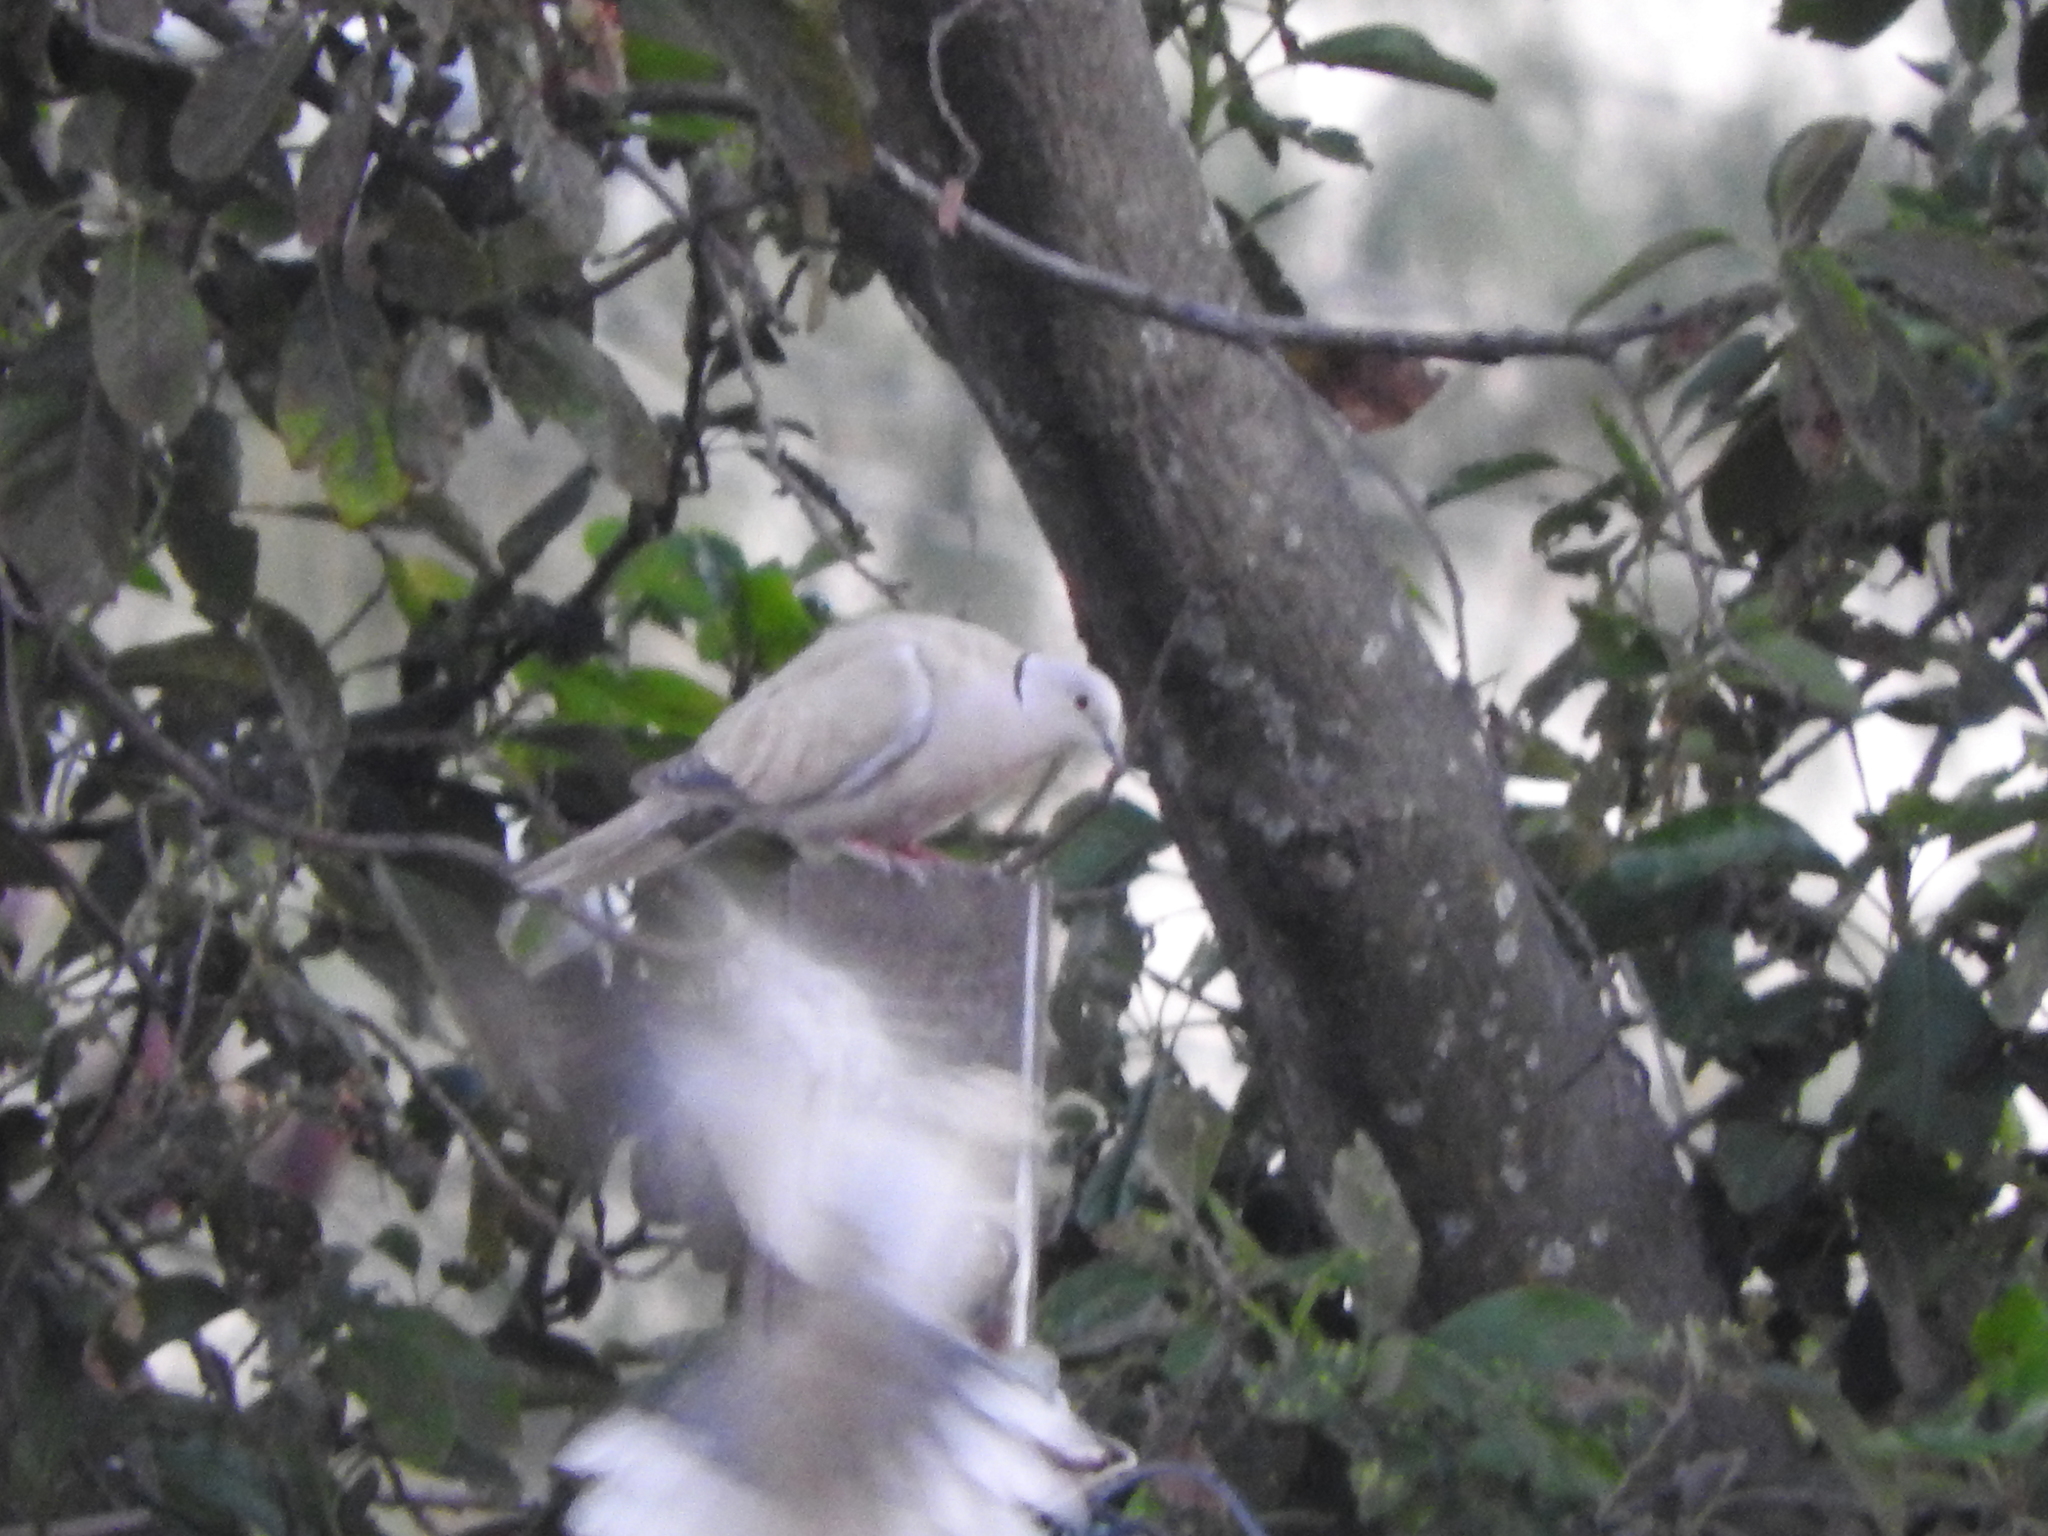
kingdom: Animalia
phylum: Chordata
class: Aves
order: Columbiformes
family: Columbidae
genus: Streptopelia
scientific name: Streptopelia decaocto
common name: Eurasian collared dove
